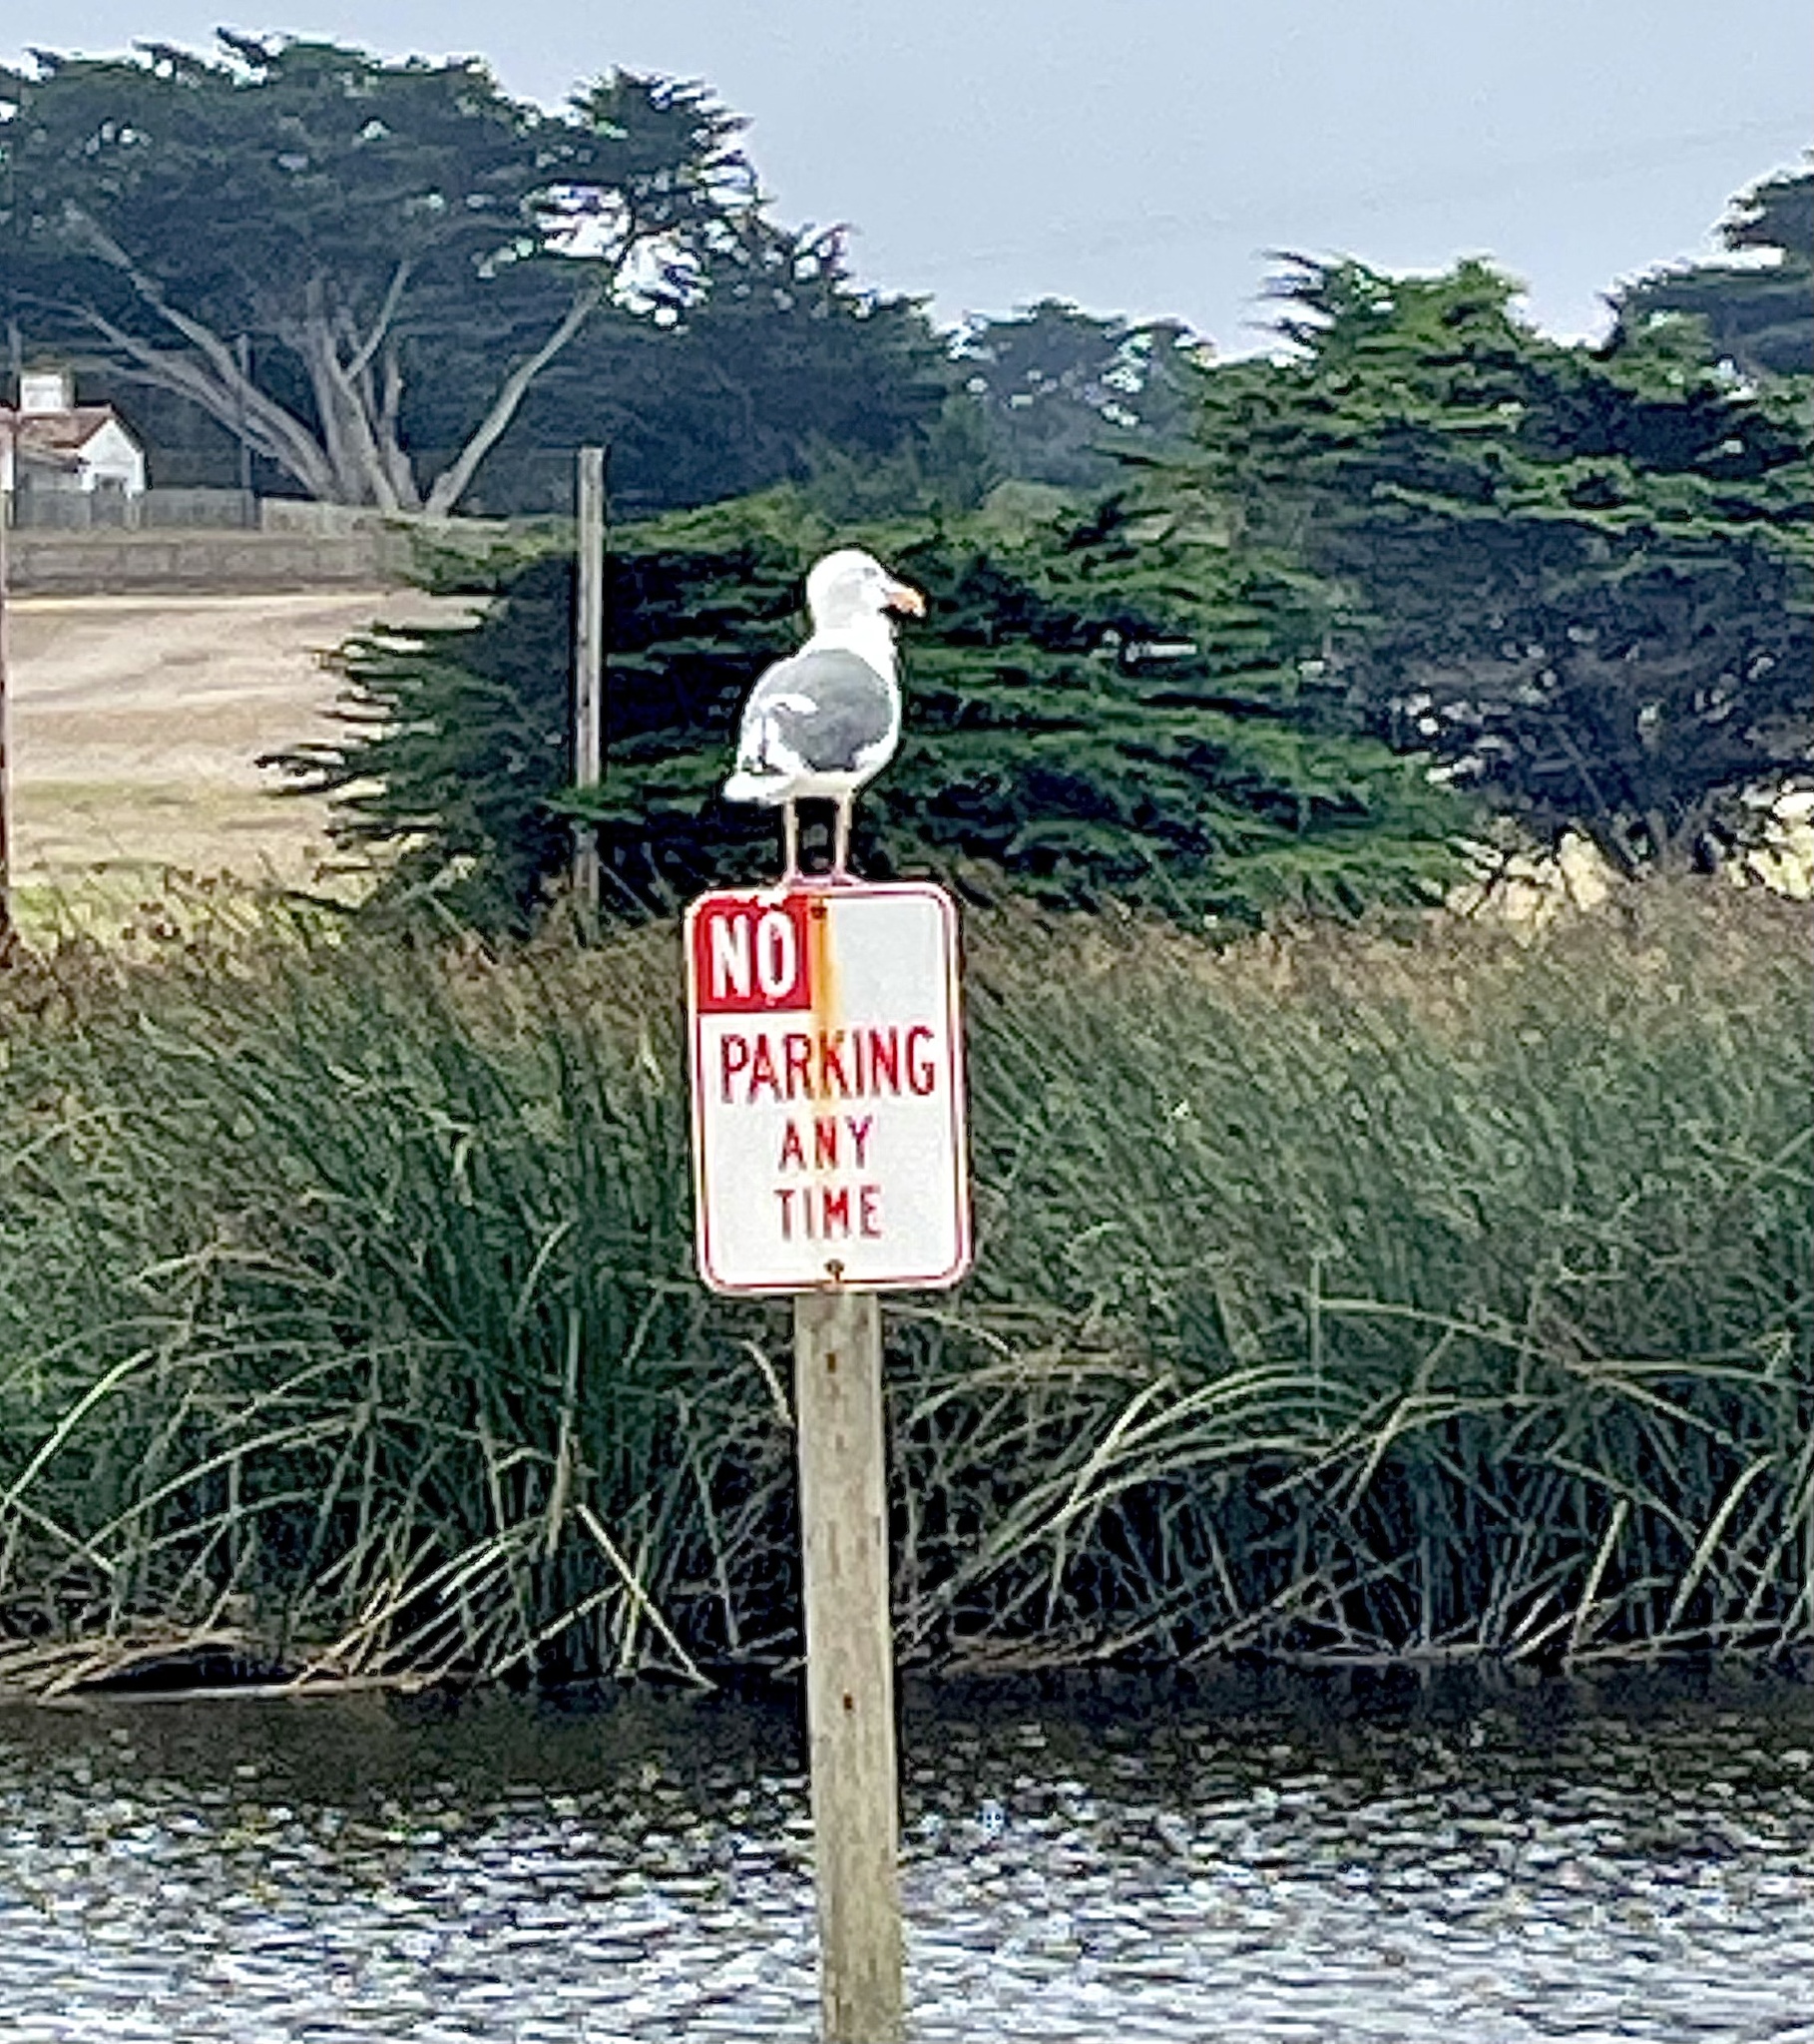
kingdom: Animalia
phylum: Chordata
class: Aves
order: Charadriiformes
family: Laridae
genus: Larus
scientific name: Larus occidentalis
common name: Western gull
